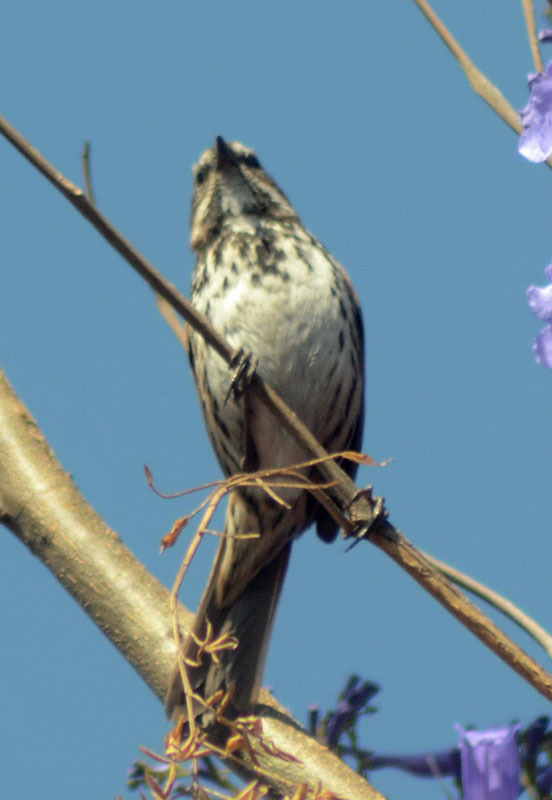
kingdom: Animalia
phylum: Chordata
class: Aves
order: Passeriformes
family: Passerellidae
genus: Melospiza
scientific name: Melospiza melodia
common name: Song sparrow
